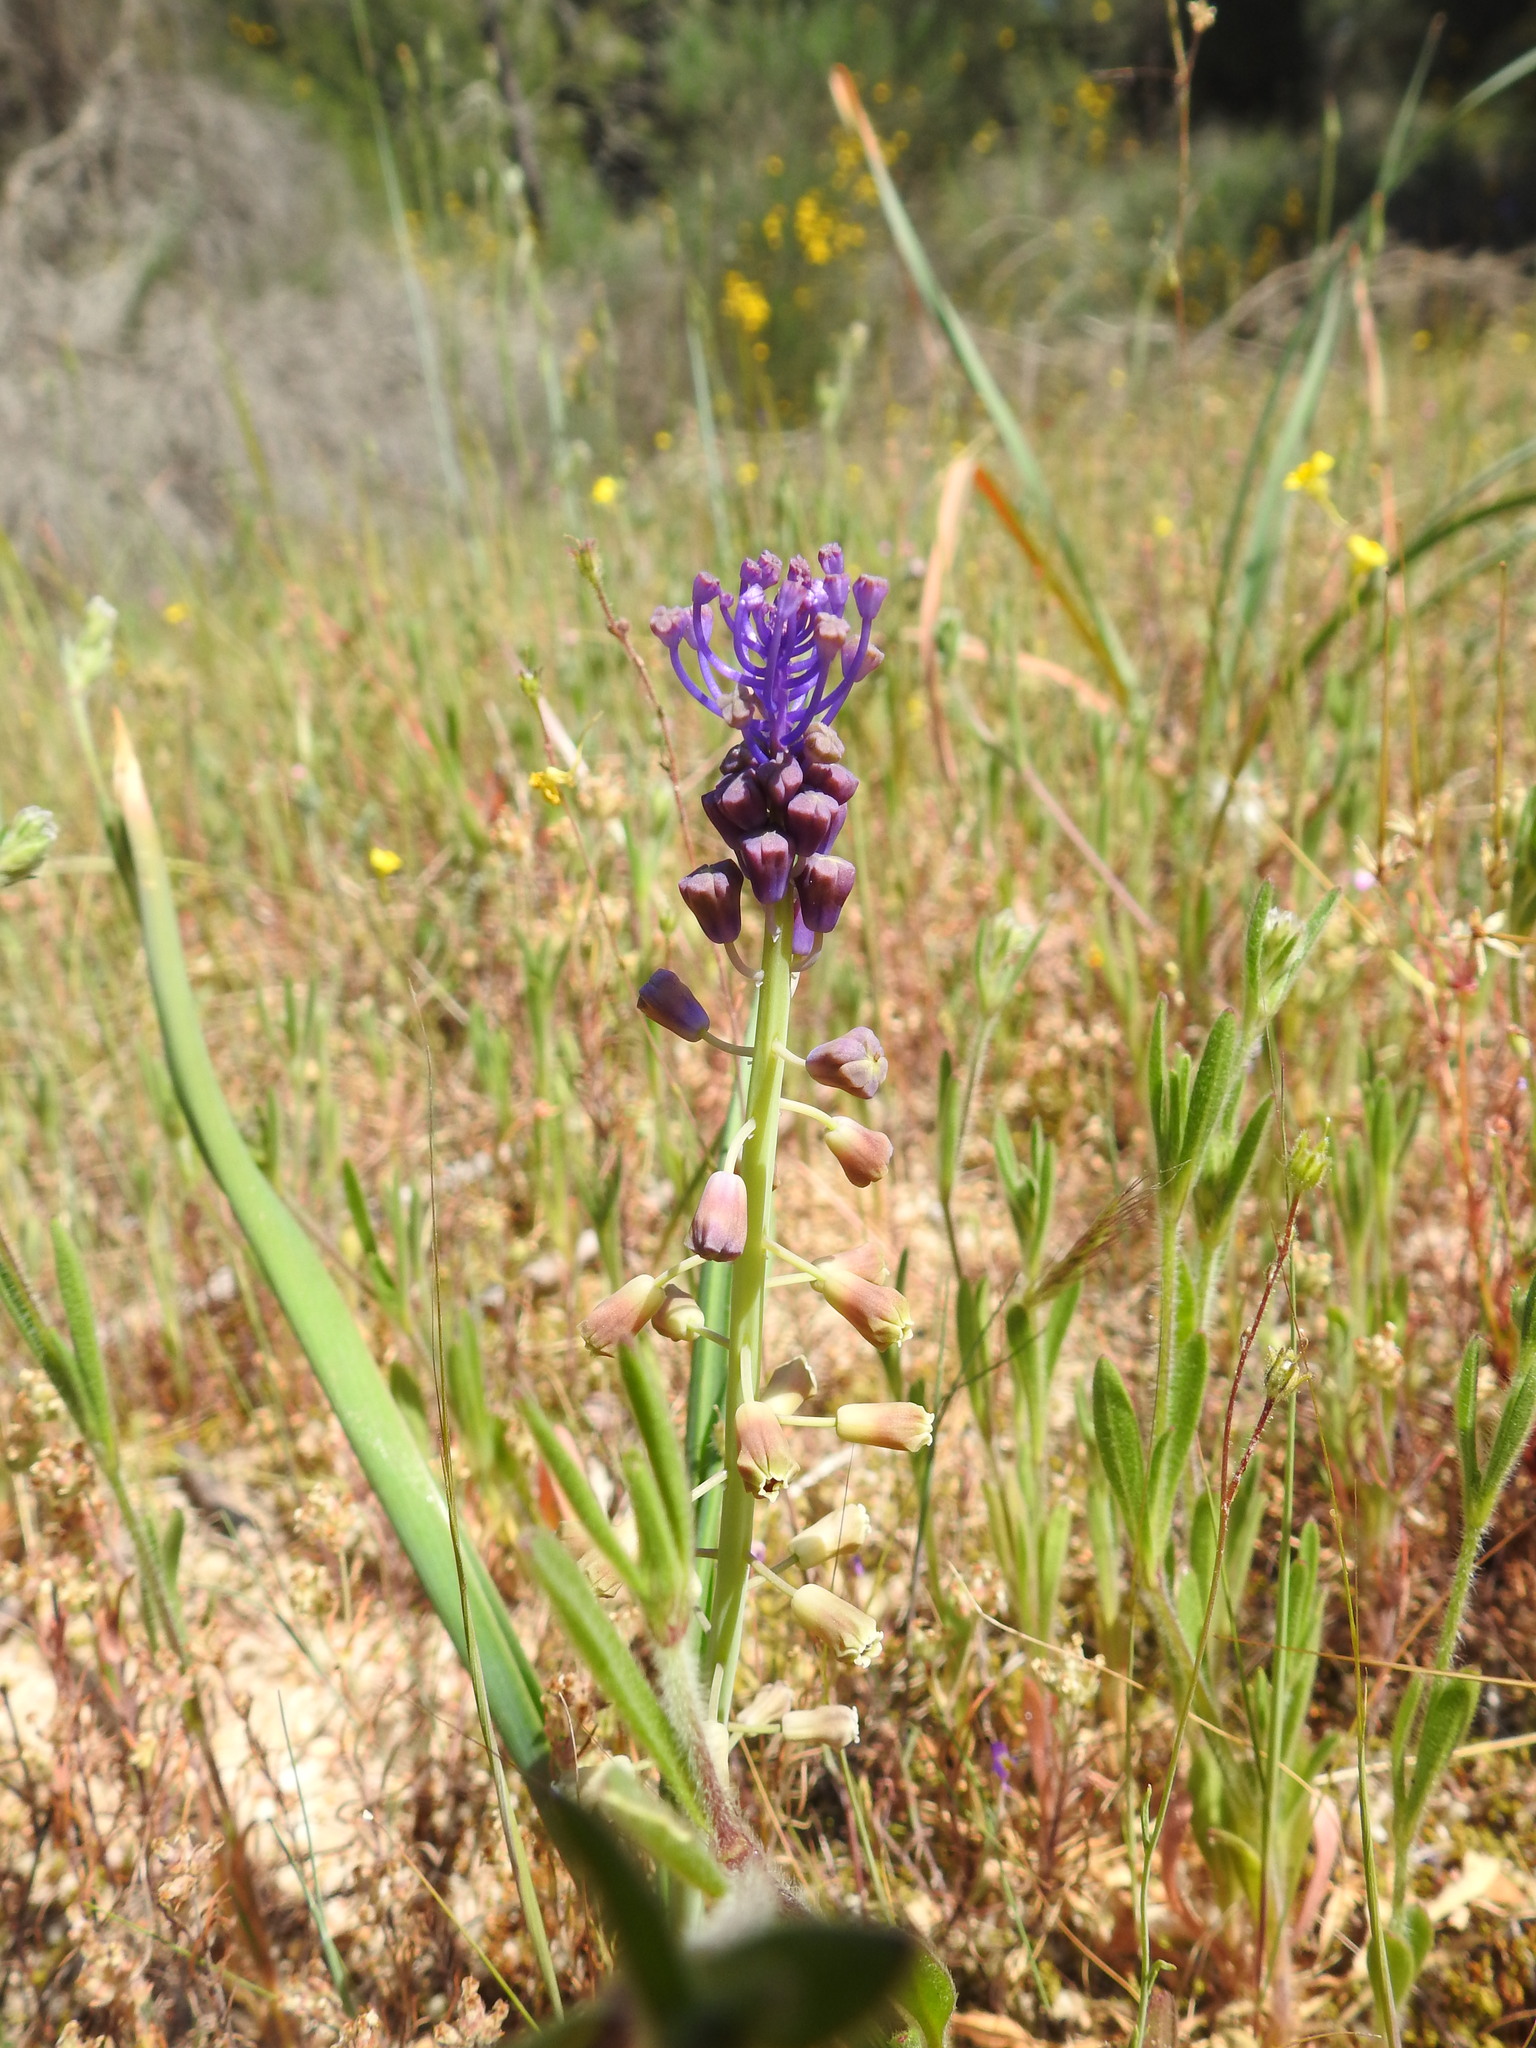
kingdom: Plantae
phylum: Tracheophyta
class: Liliopsida
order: Asparagales
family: Asparagaceae
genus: Muscari
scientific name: Muscari comosum
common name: Tassel hyacinth
